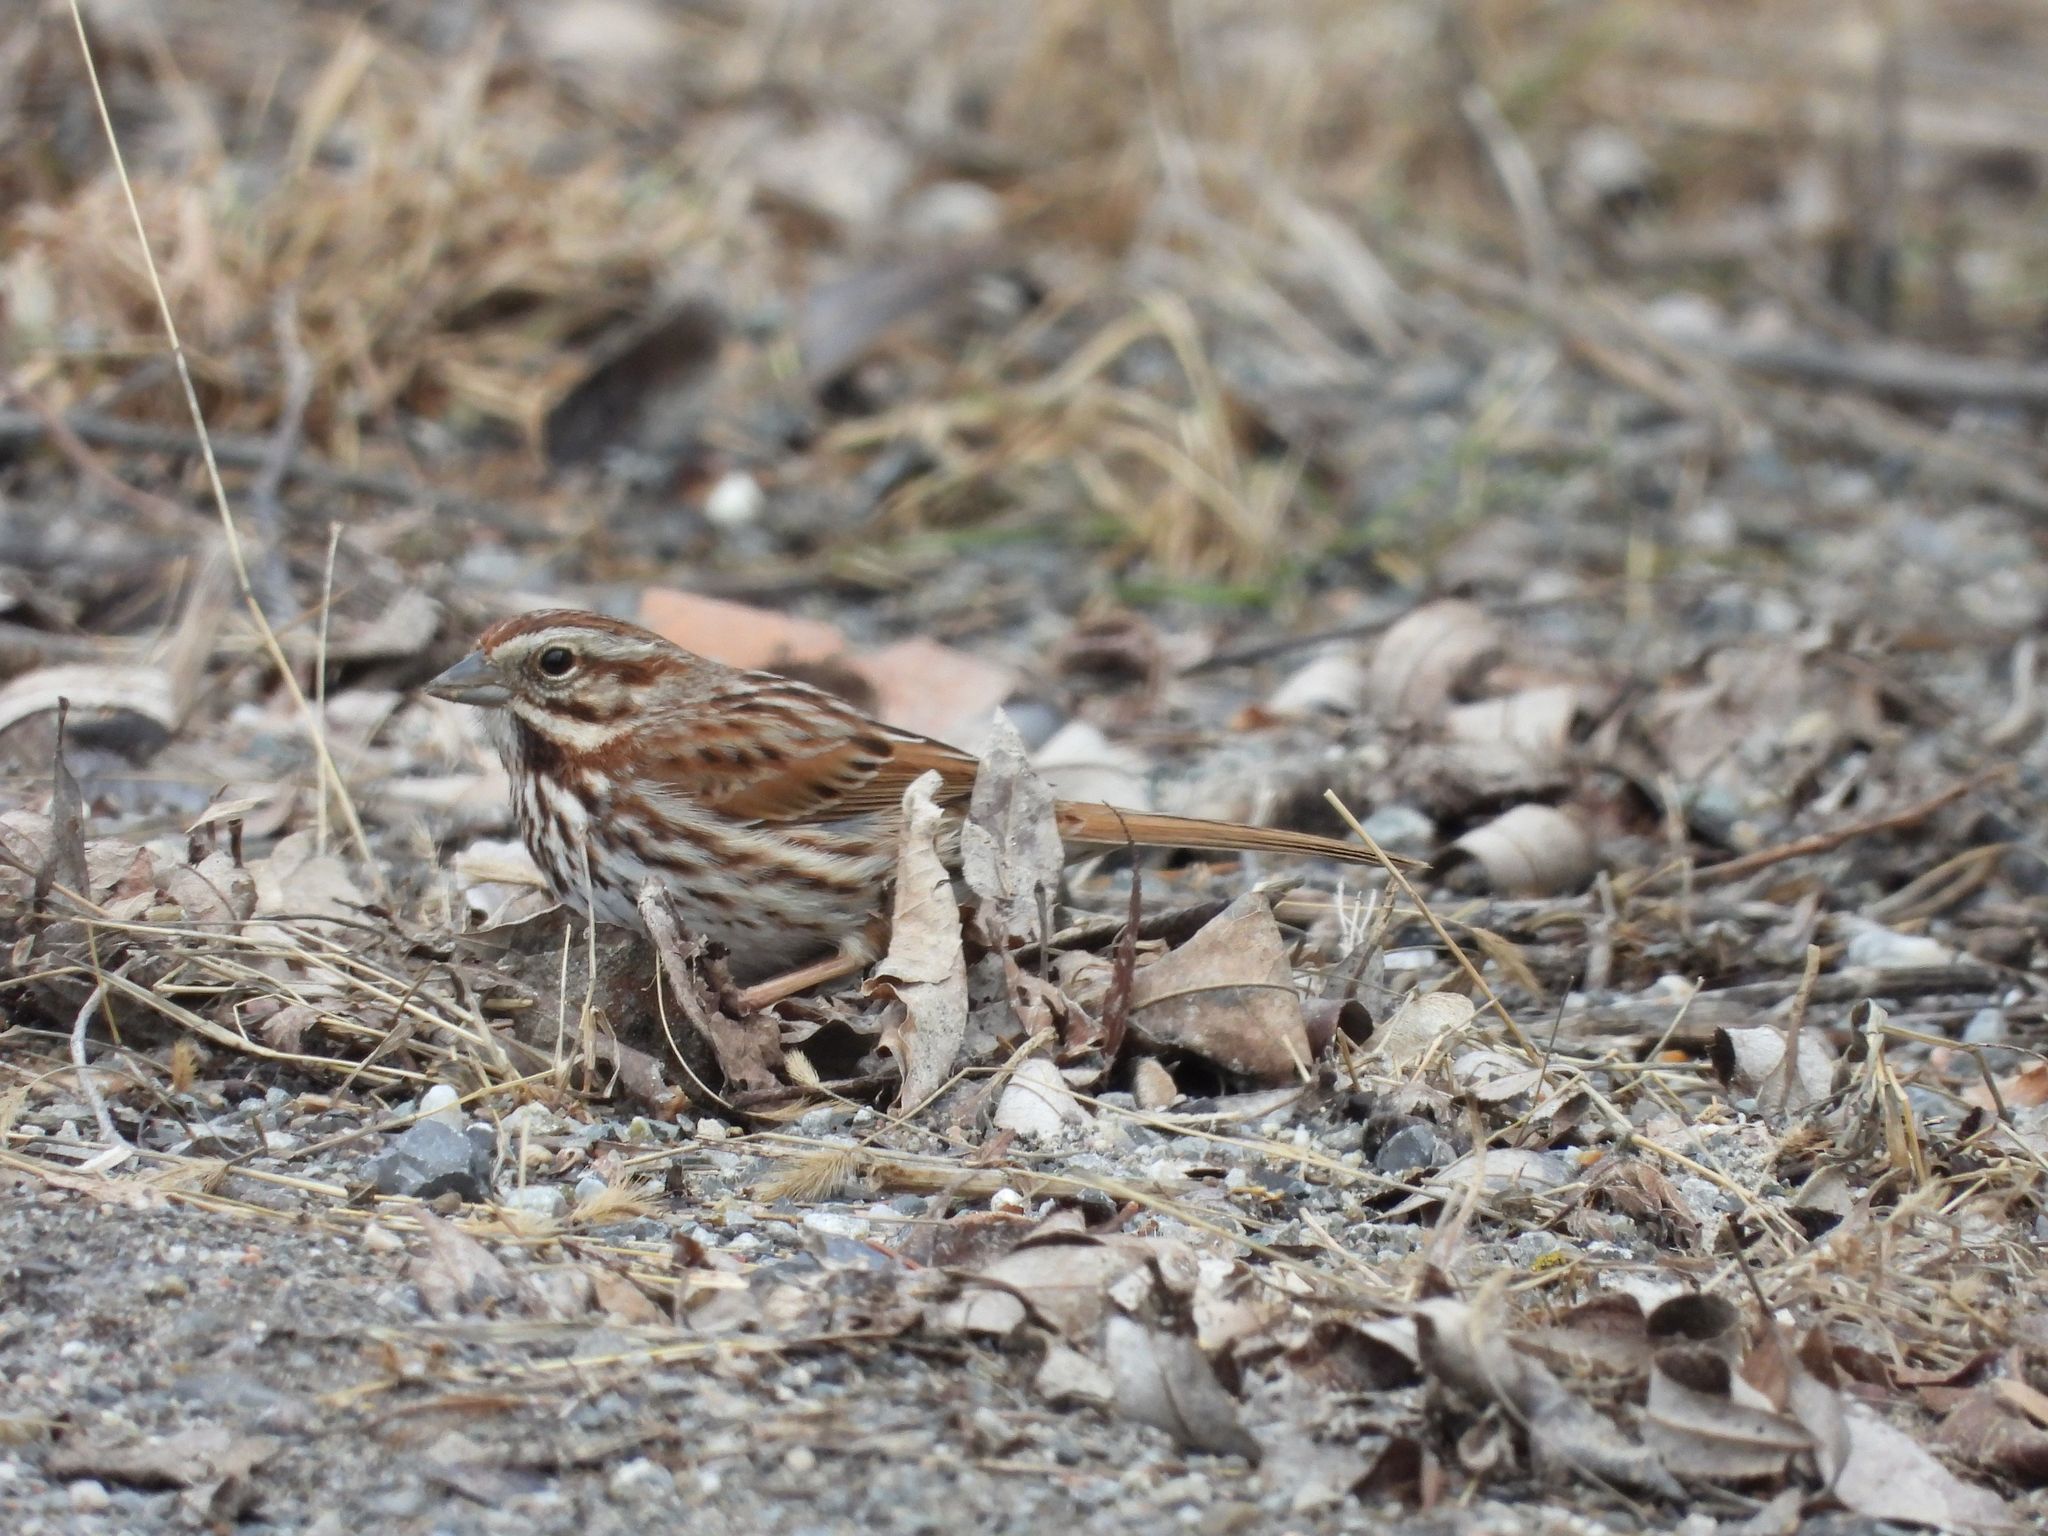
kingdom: Animalia
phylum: Chordata
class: Aves
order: Passeriformes
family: Passerellidae
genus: Melospiza
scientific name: Melospiza melodia
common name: Song sparrow
